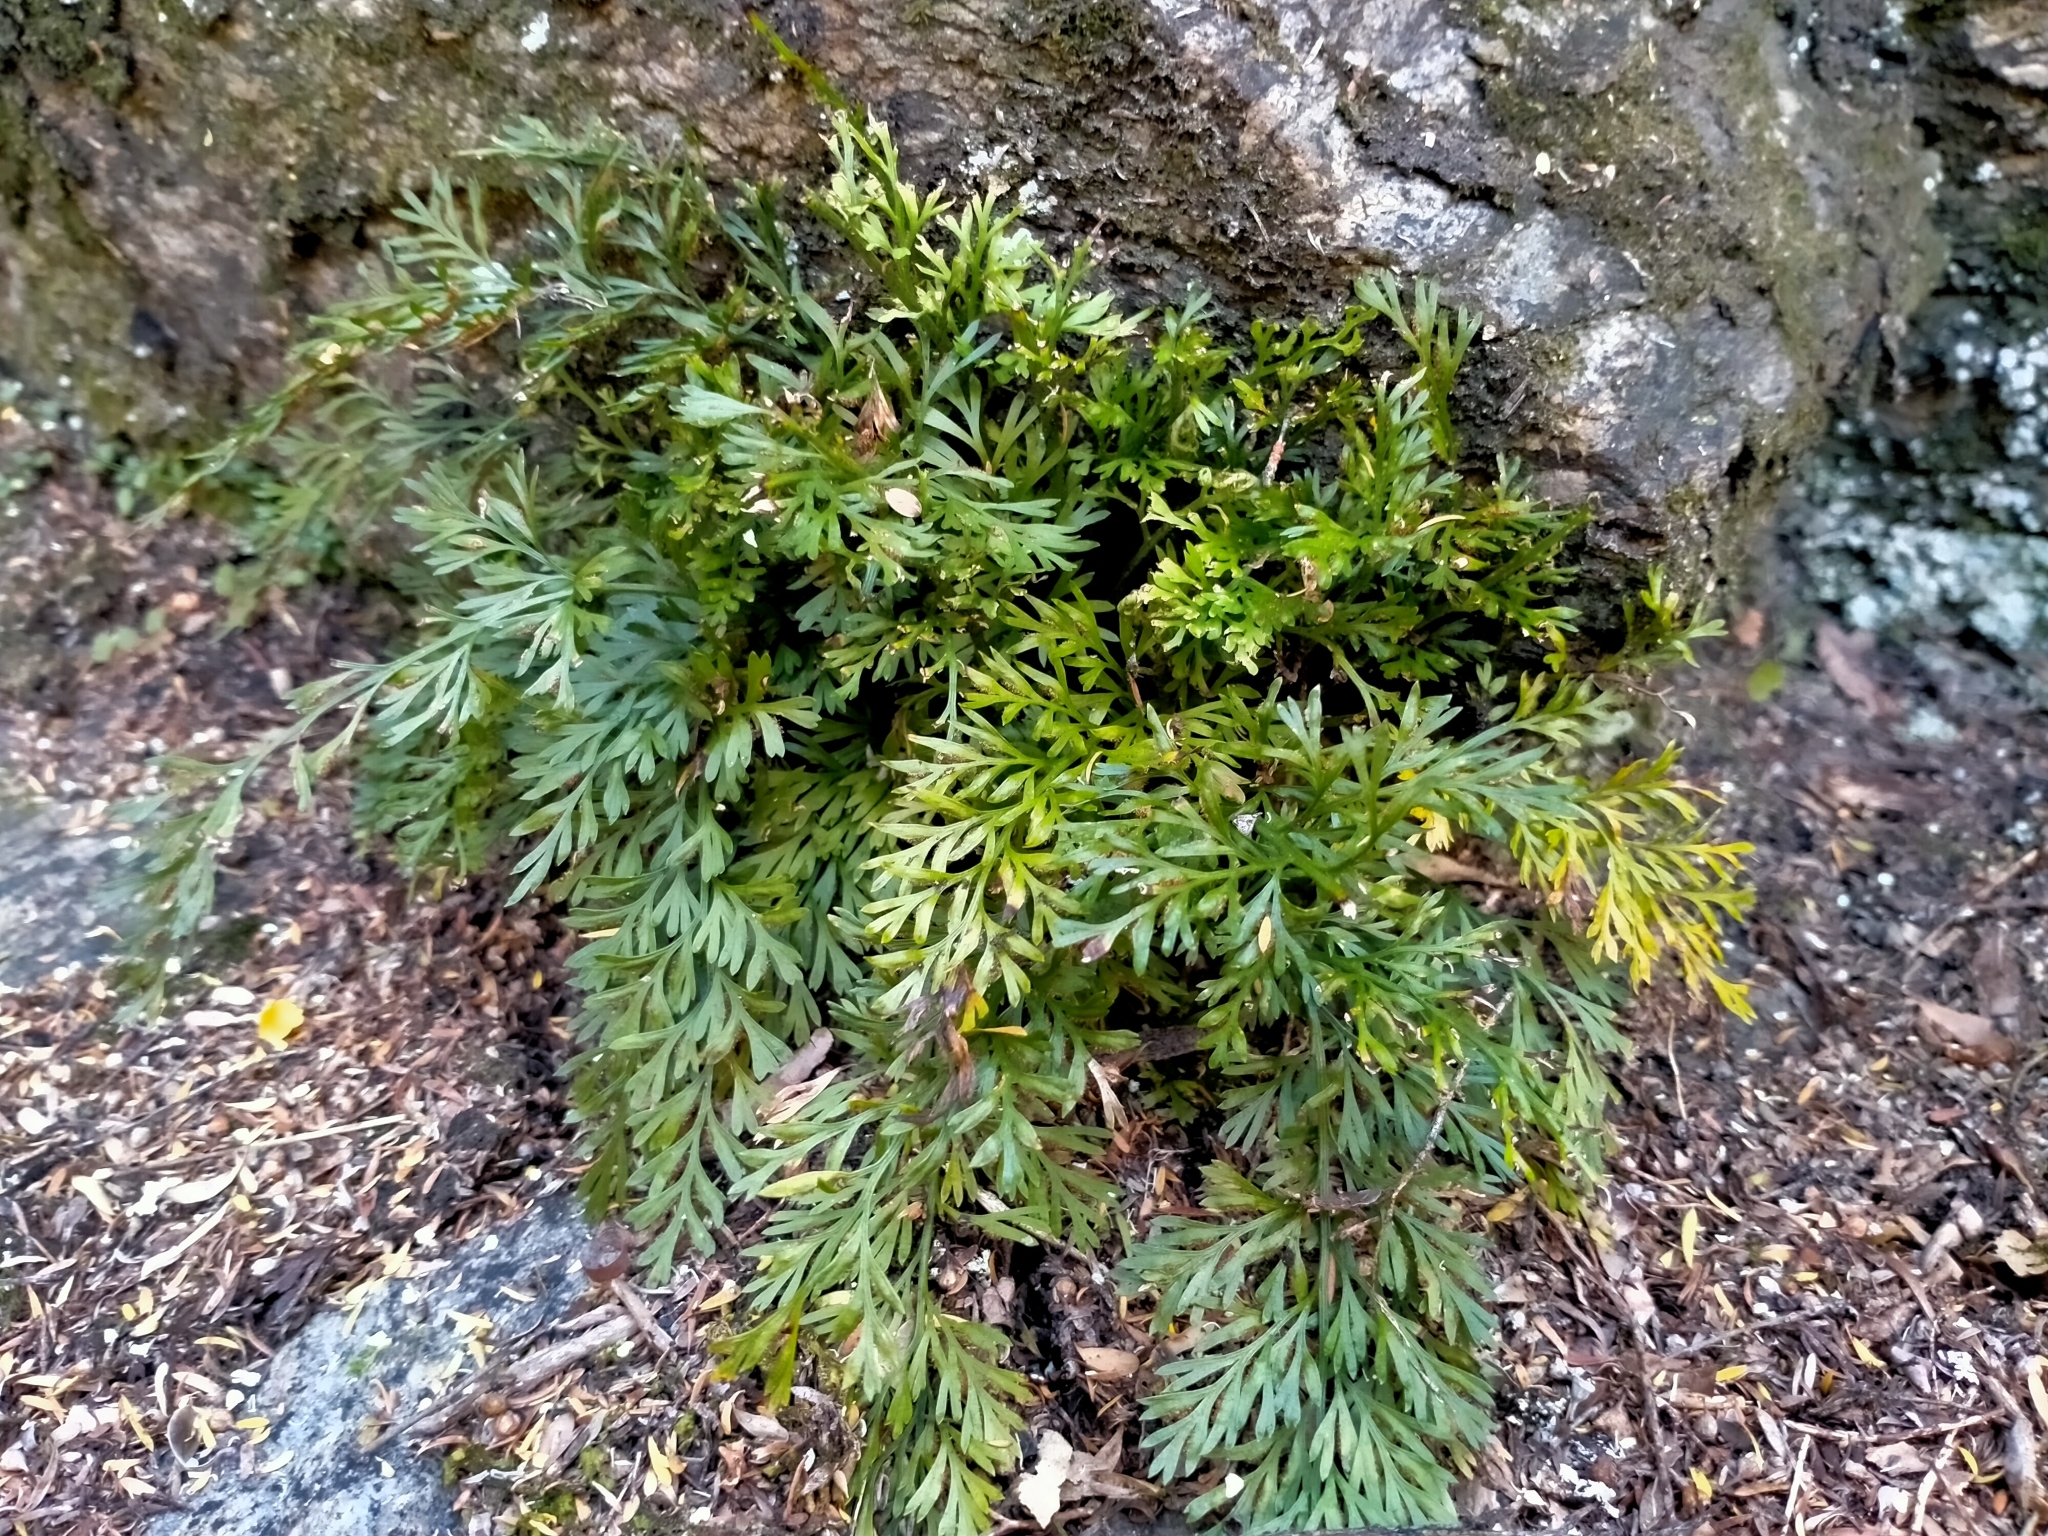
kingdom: Plantae
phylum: Tracheophyta
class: Polypodiopsida
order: Polypodiales
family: Aspleniaceae
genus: Asplenium
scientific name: Asplenium richardii
